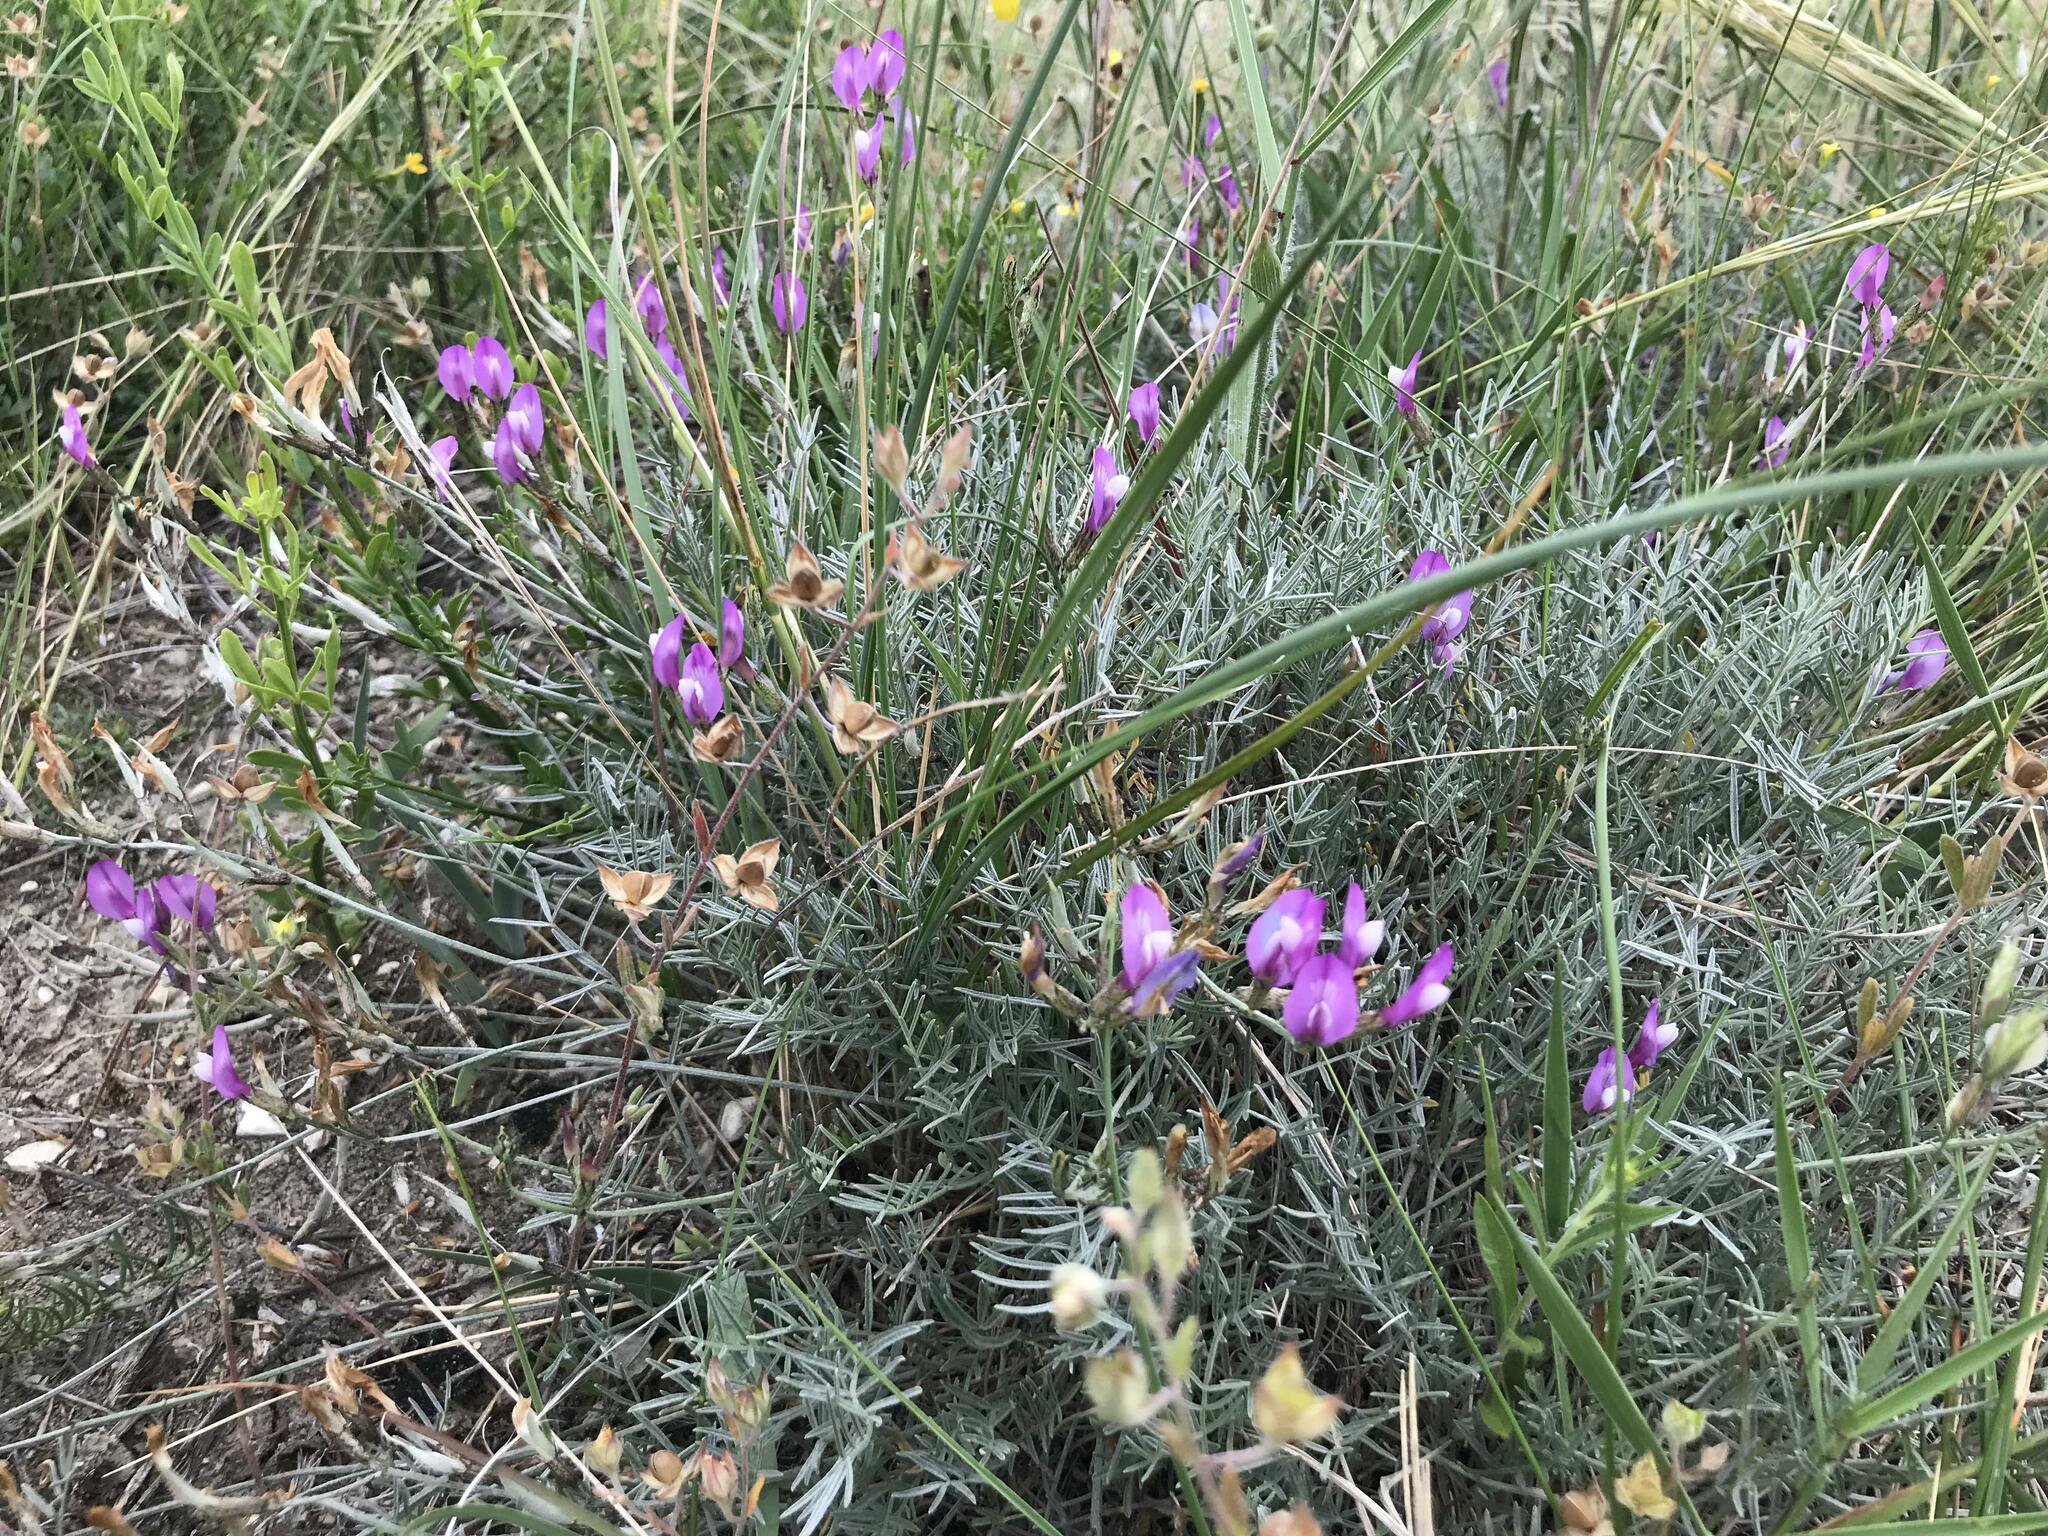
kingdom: Plantae
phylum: Tracheophyta
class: Magnoliopsida
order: Fabales
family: Fabaceae
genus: Astragalus
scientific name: Astragalus subuliformis
